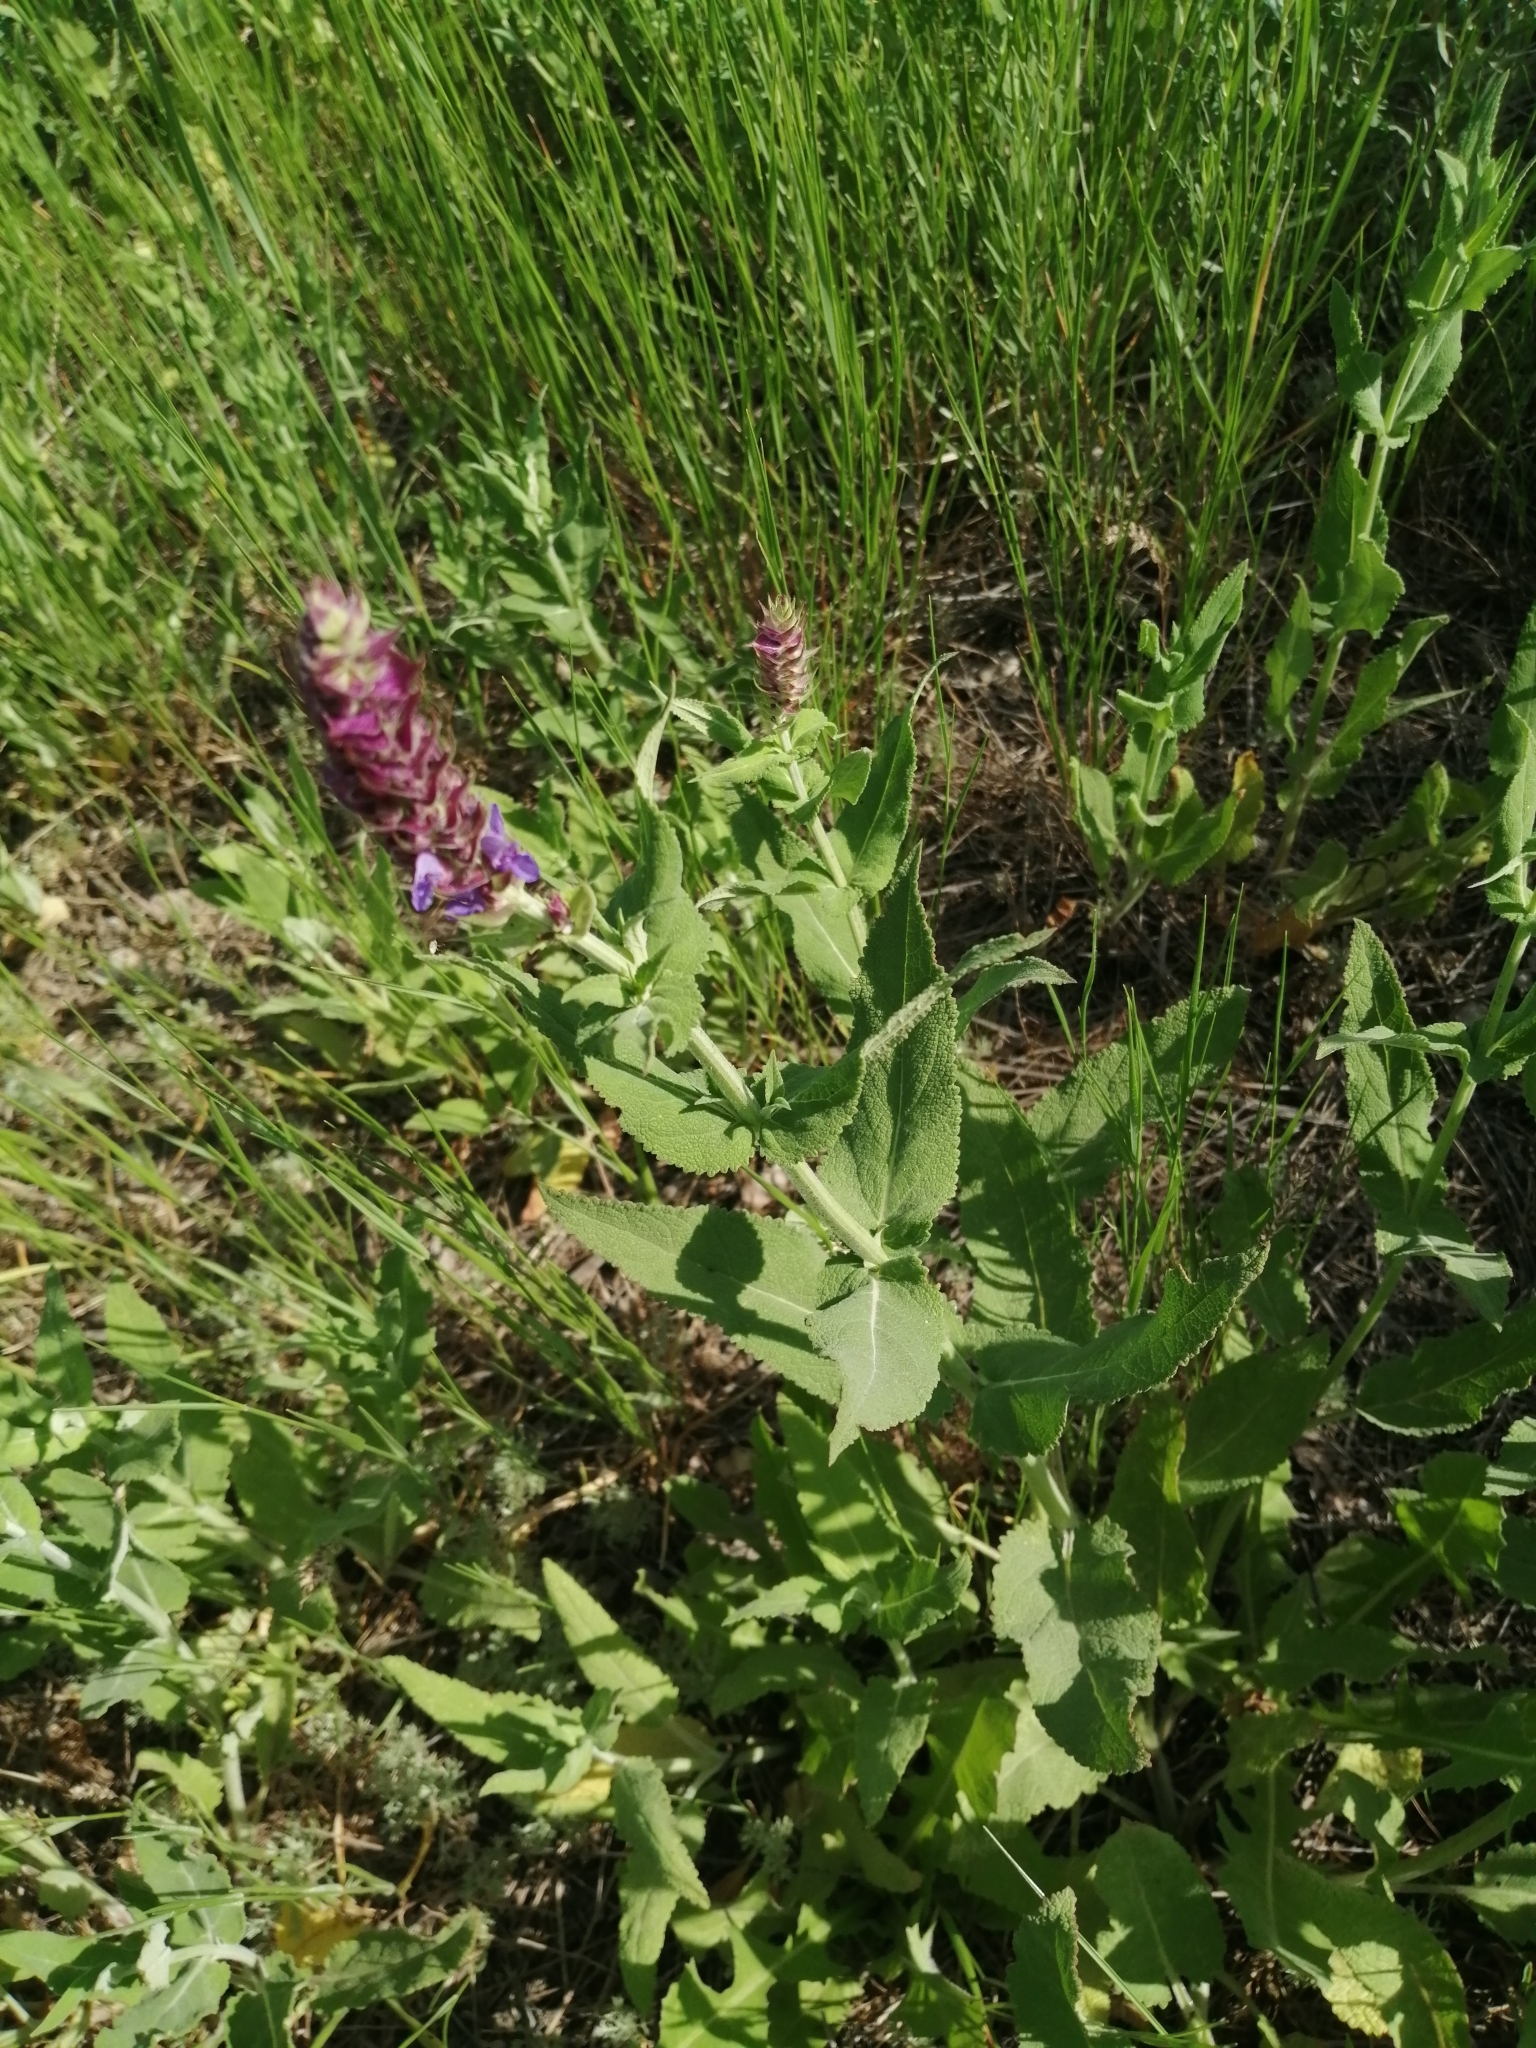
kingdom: Plantae
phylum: Tracheophyta
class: Magnoliopsida
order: Lamiales
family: Lamiaceae
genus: Salvia
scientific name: Salvia nemorosa
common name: Balkan clary
